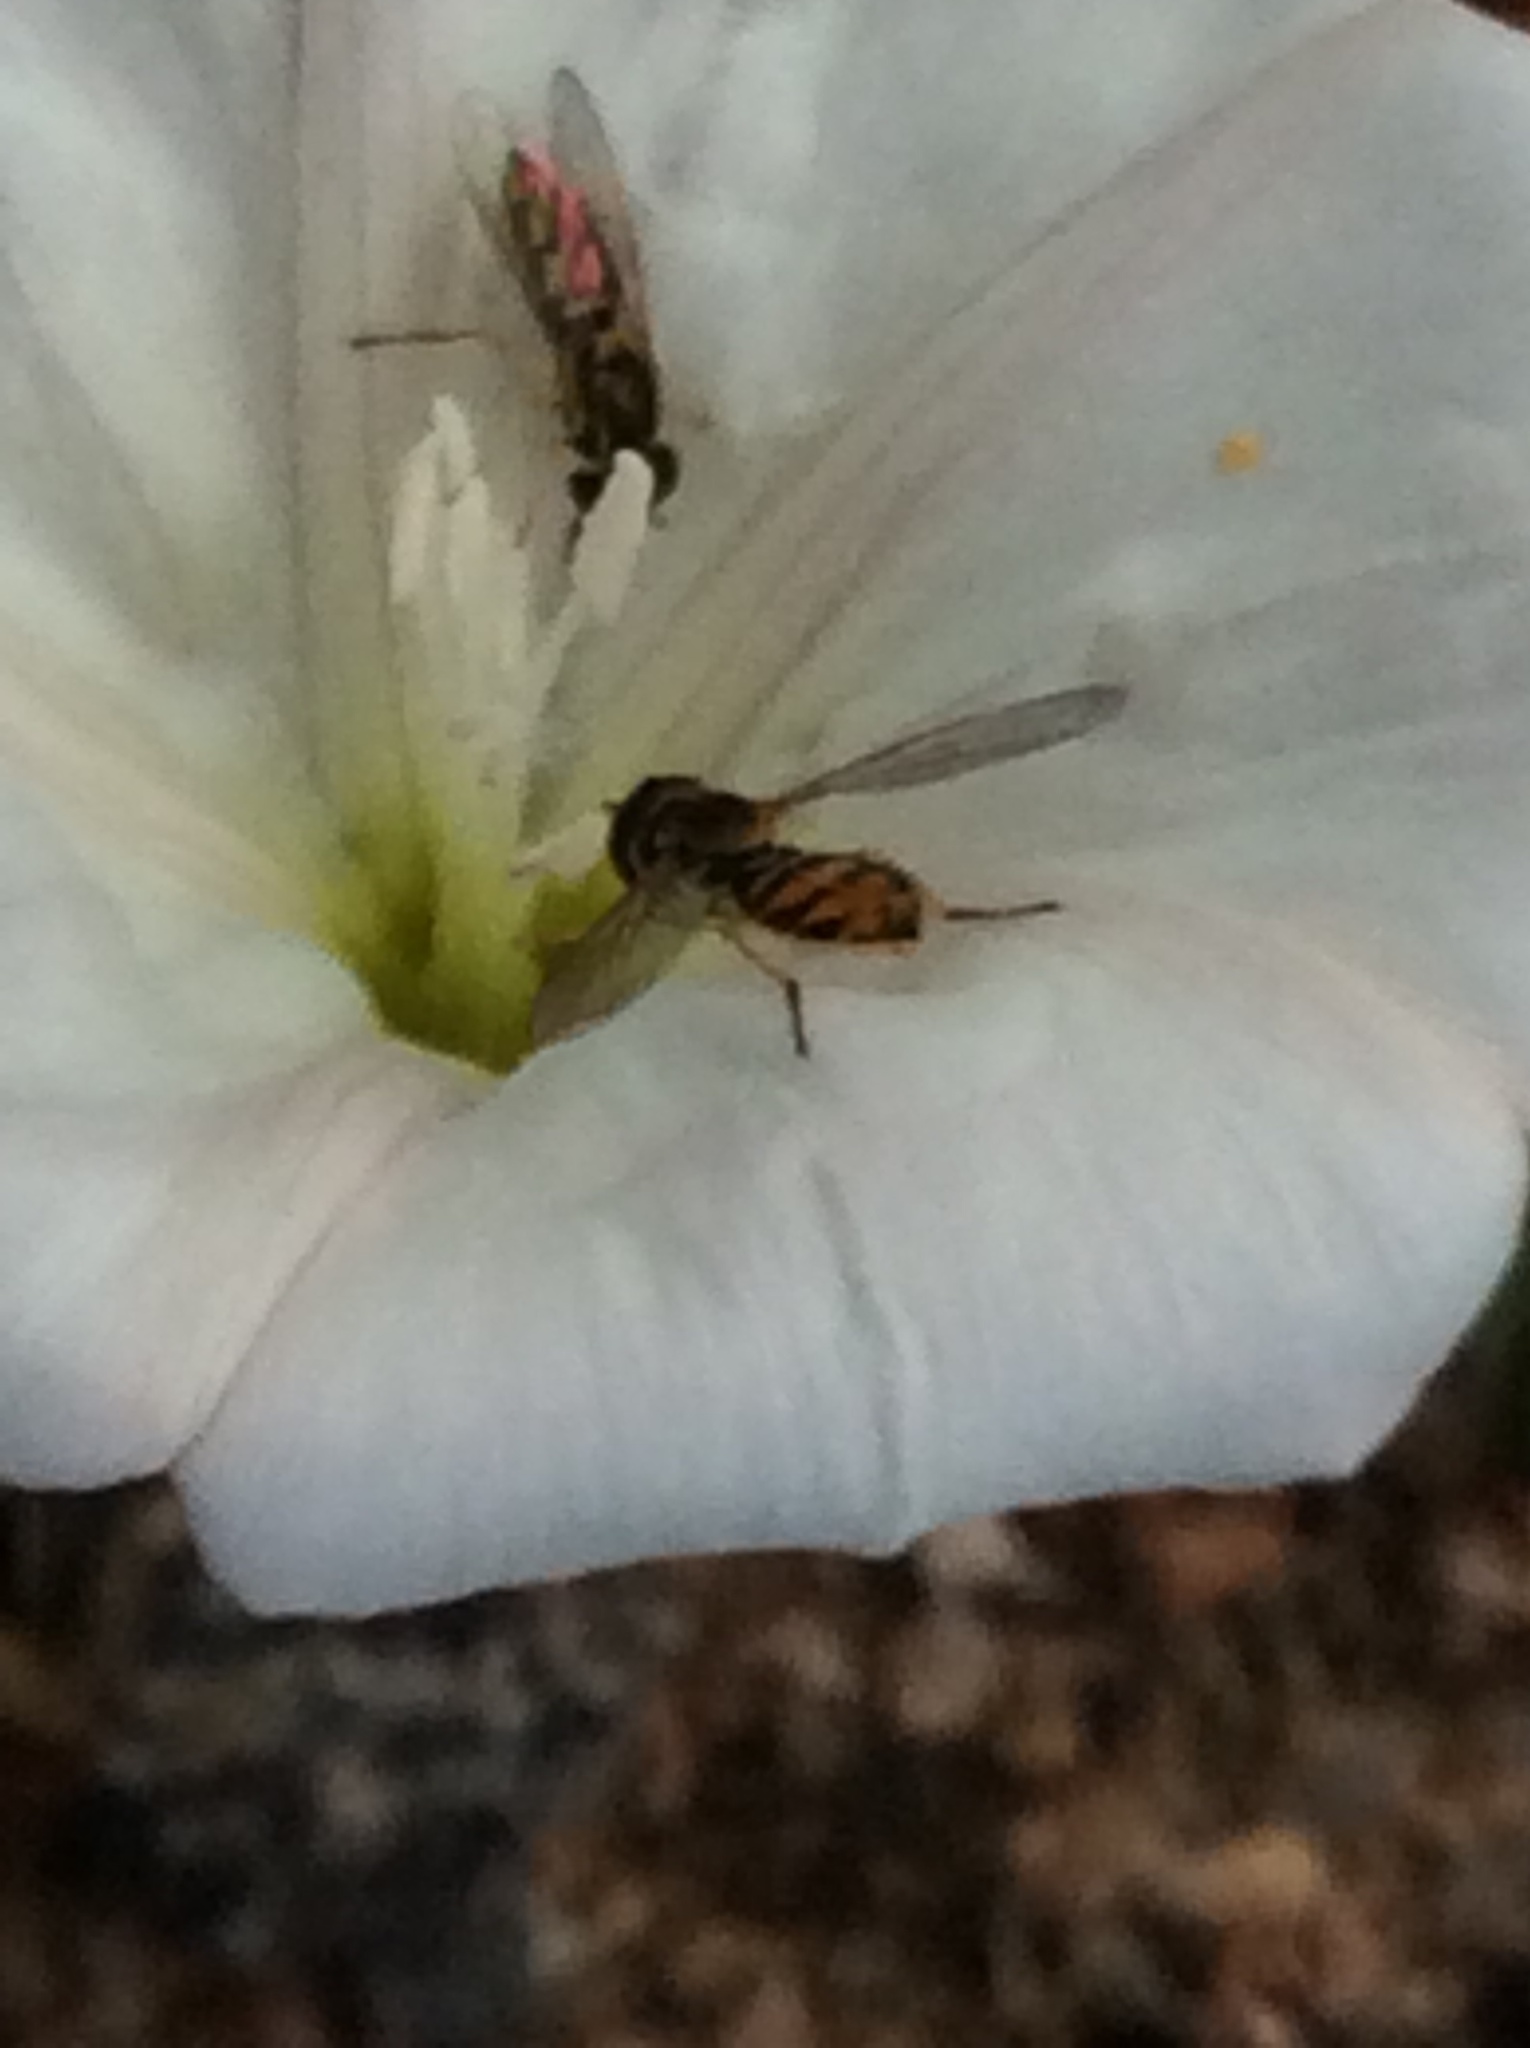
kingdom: Animalia
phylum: Arthropoda
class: Insecta
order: Diptera
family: Syrphidae
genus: Toxomerus
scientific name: Toxomerus marginatus
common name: Syrphid fly
